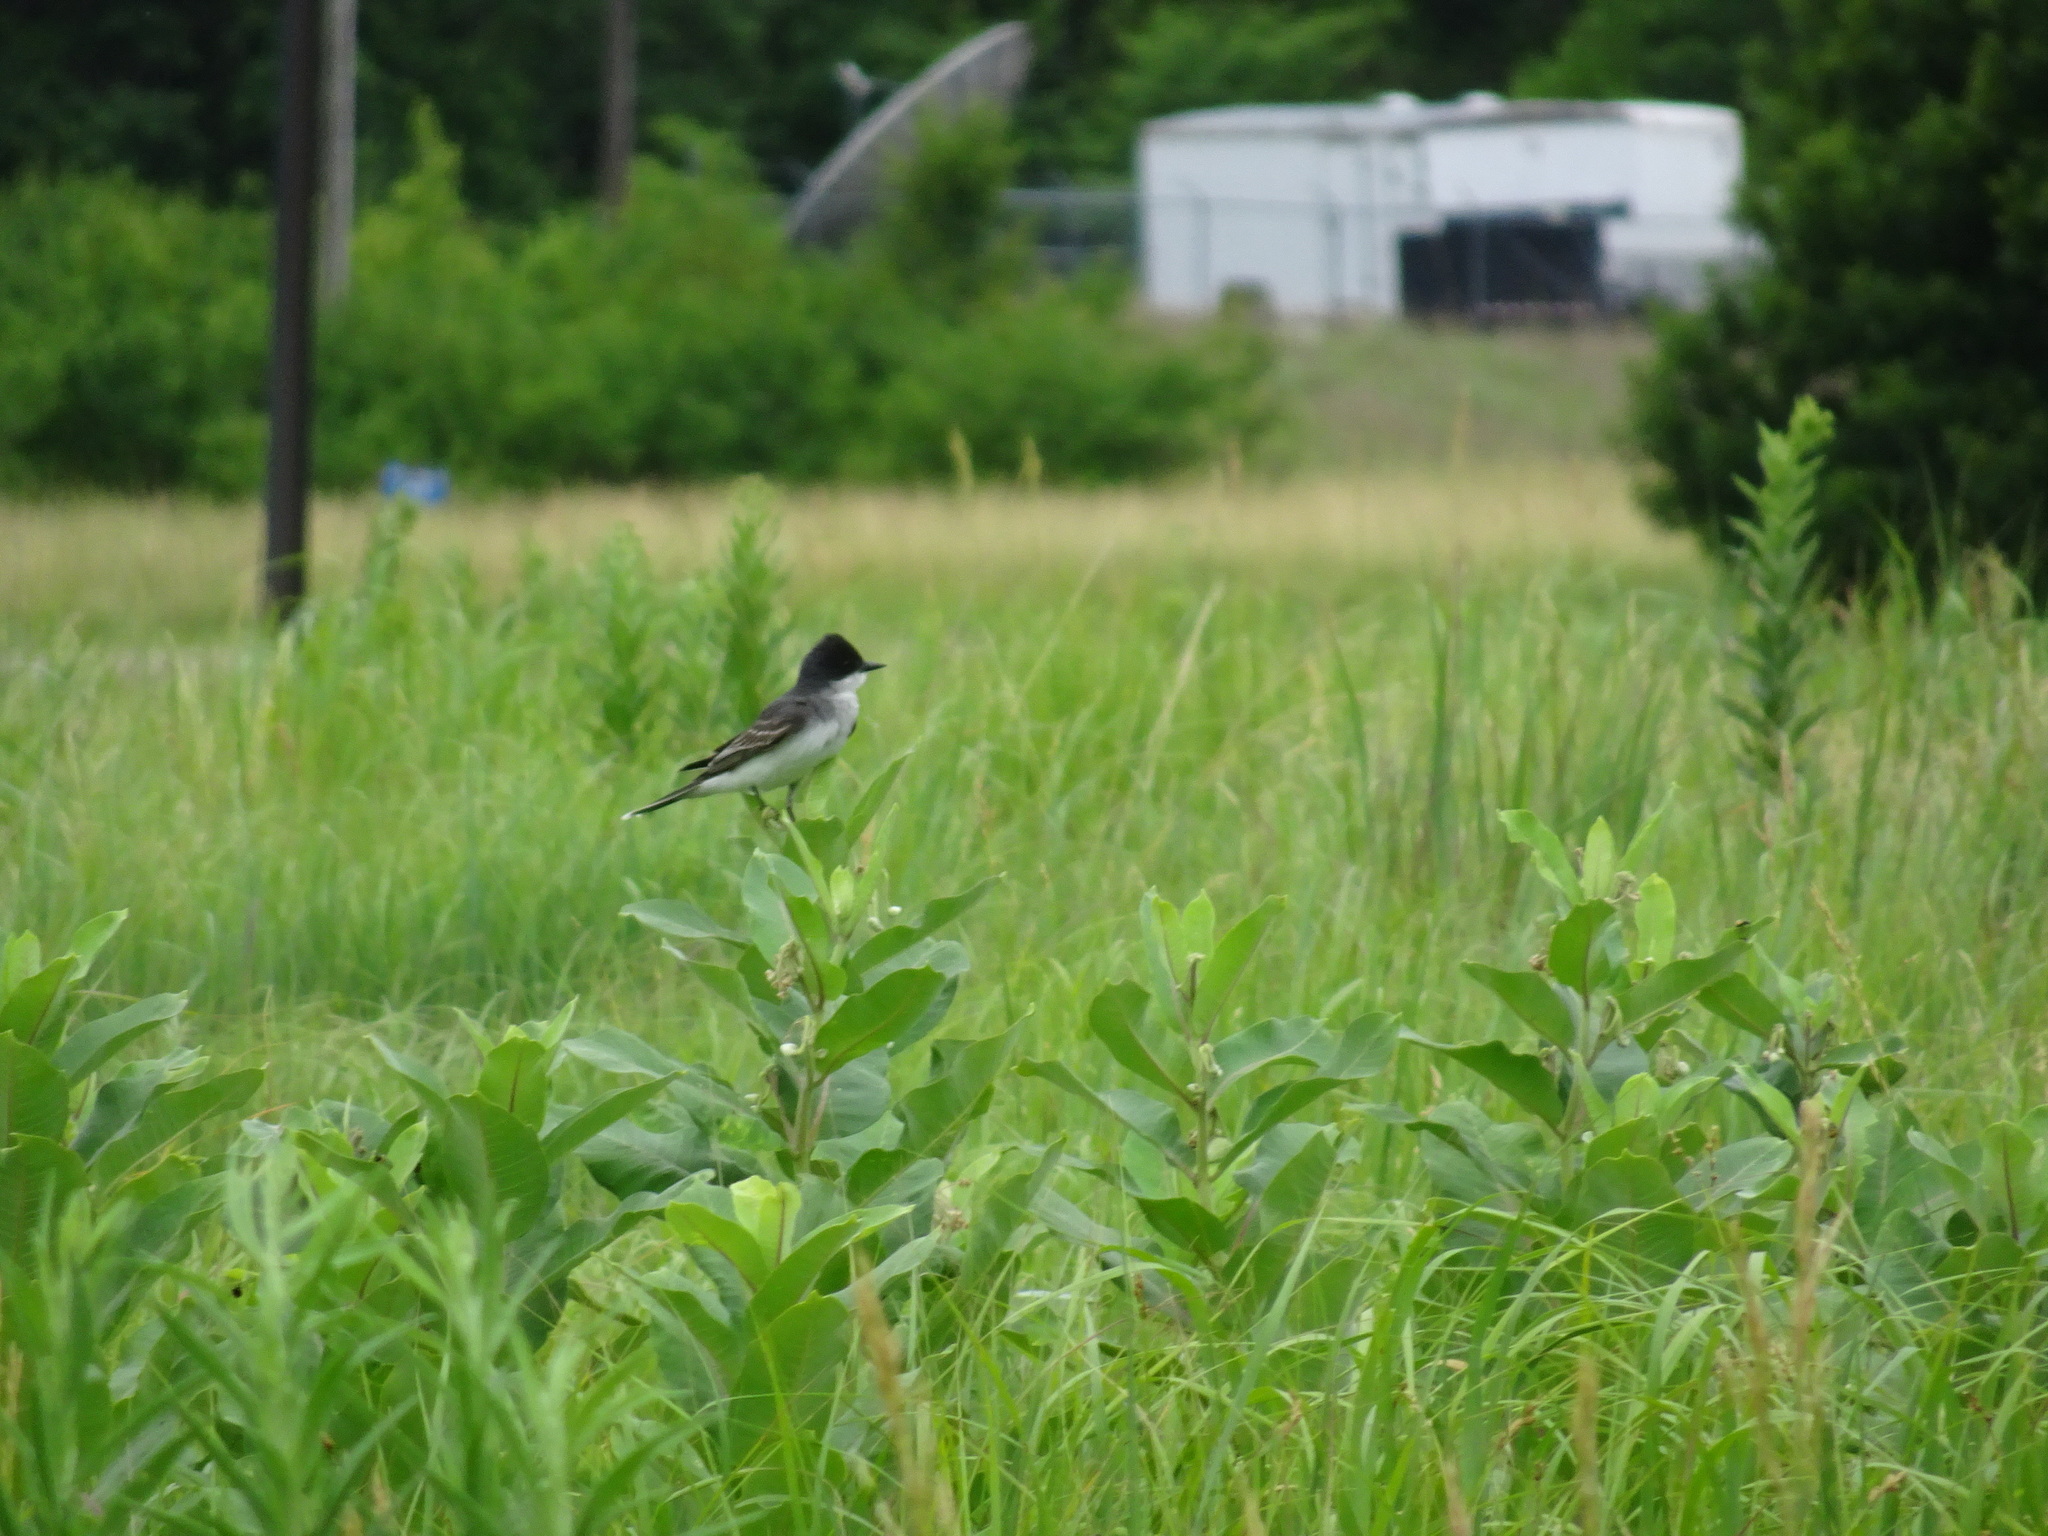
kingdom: Animalia
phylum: Chordata
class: Aves
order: Passeriformes
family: Tyrannidae
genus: Tyrannus
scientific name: Tyrannus tyrannus
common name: Eastern kingbird
